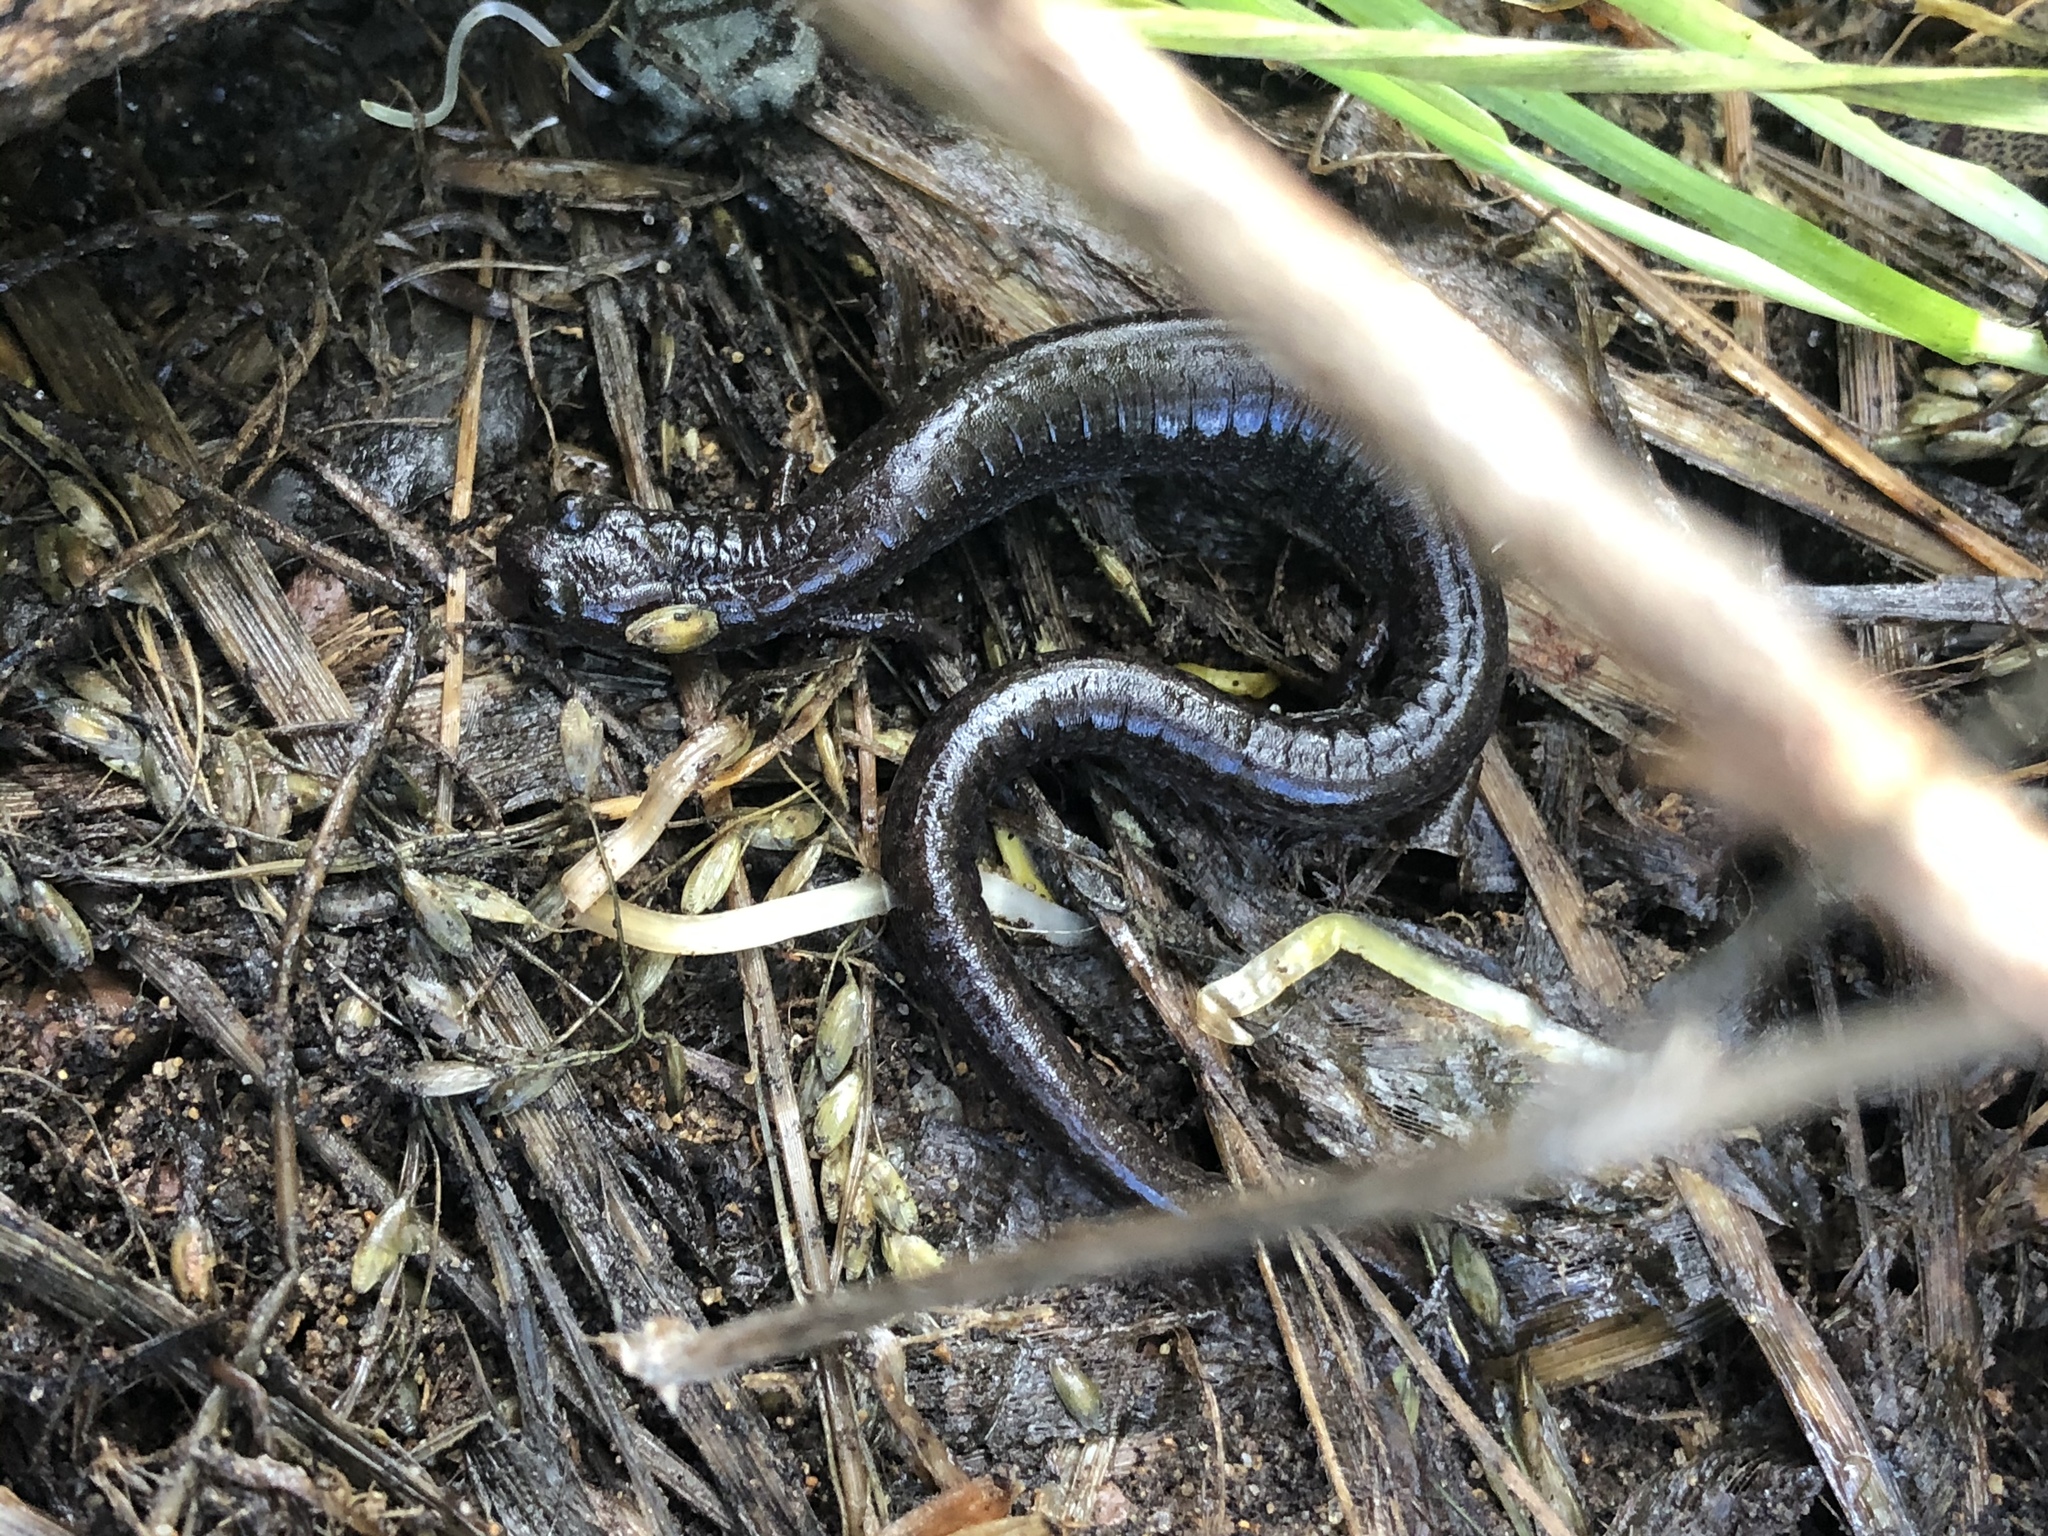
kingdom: Animalia
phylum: Chordata
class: Amphibia
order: Caudata
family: Plethodontidae
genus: Batrachoseps
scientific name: Batrachoseps attenuatus
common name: California slender salamander
